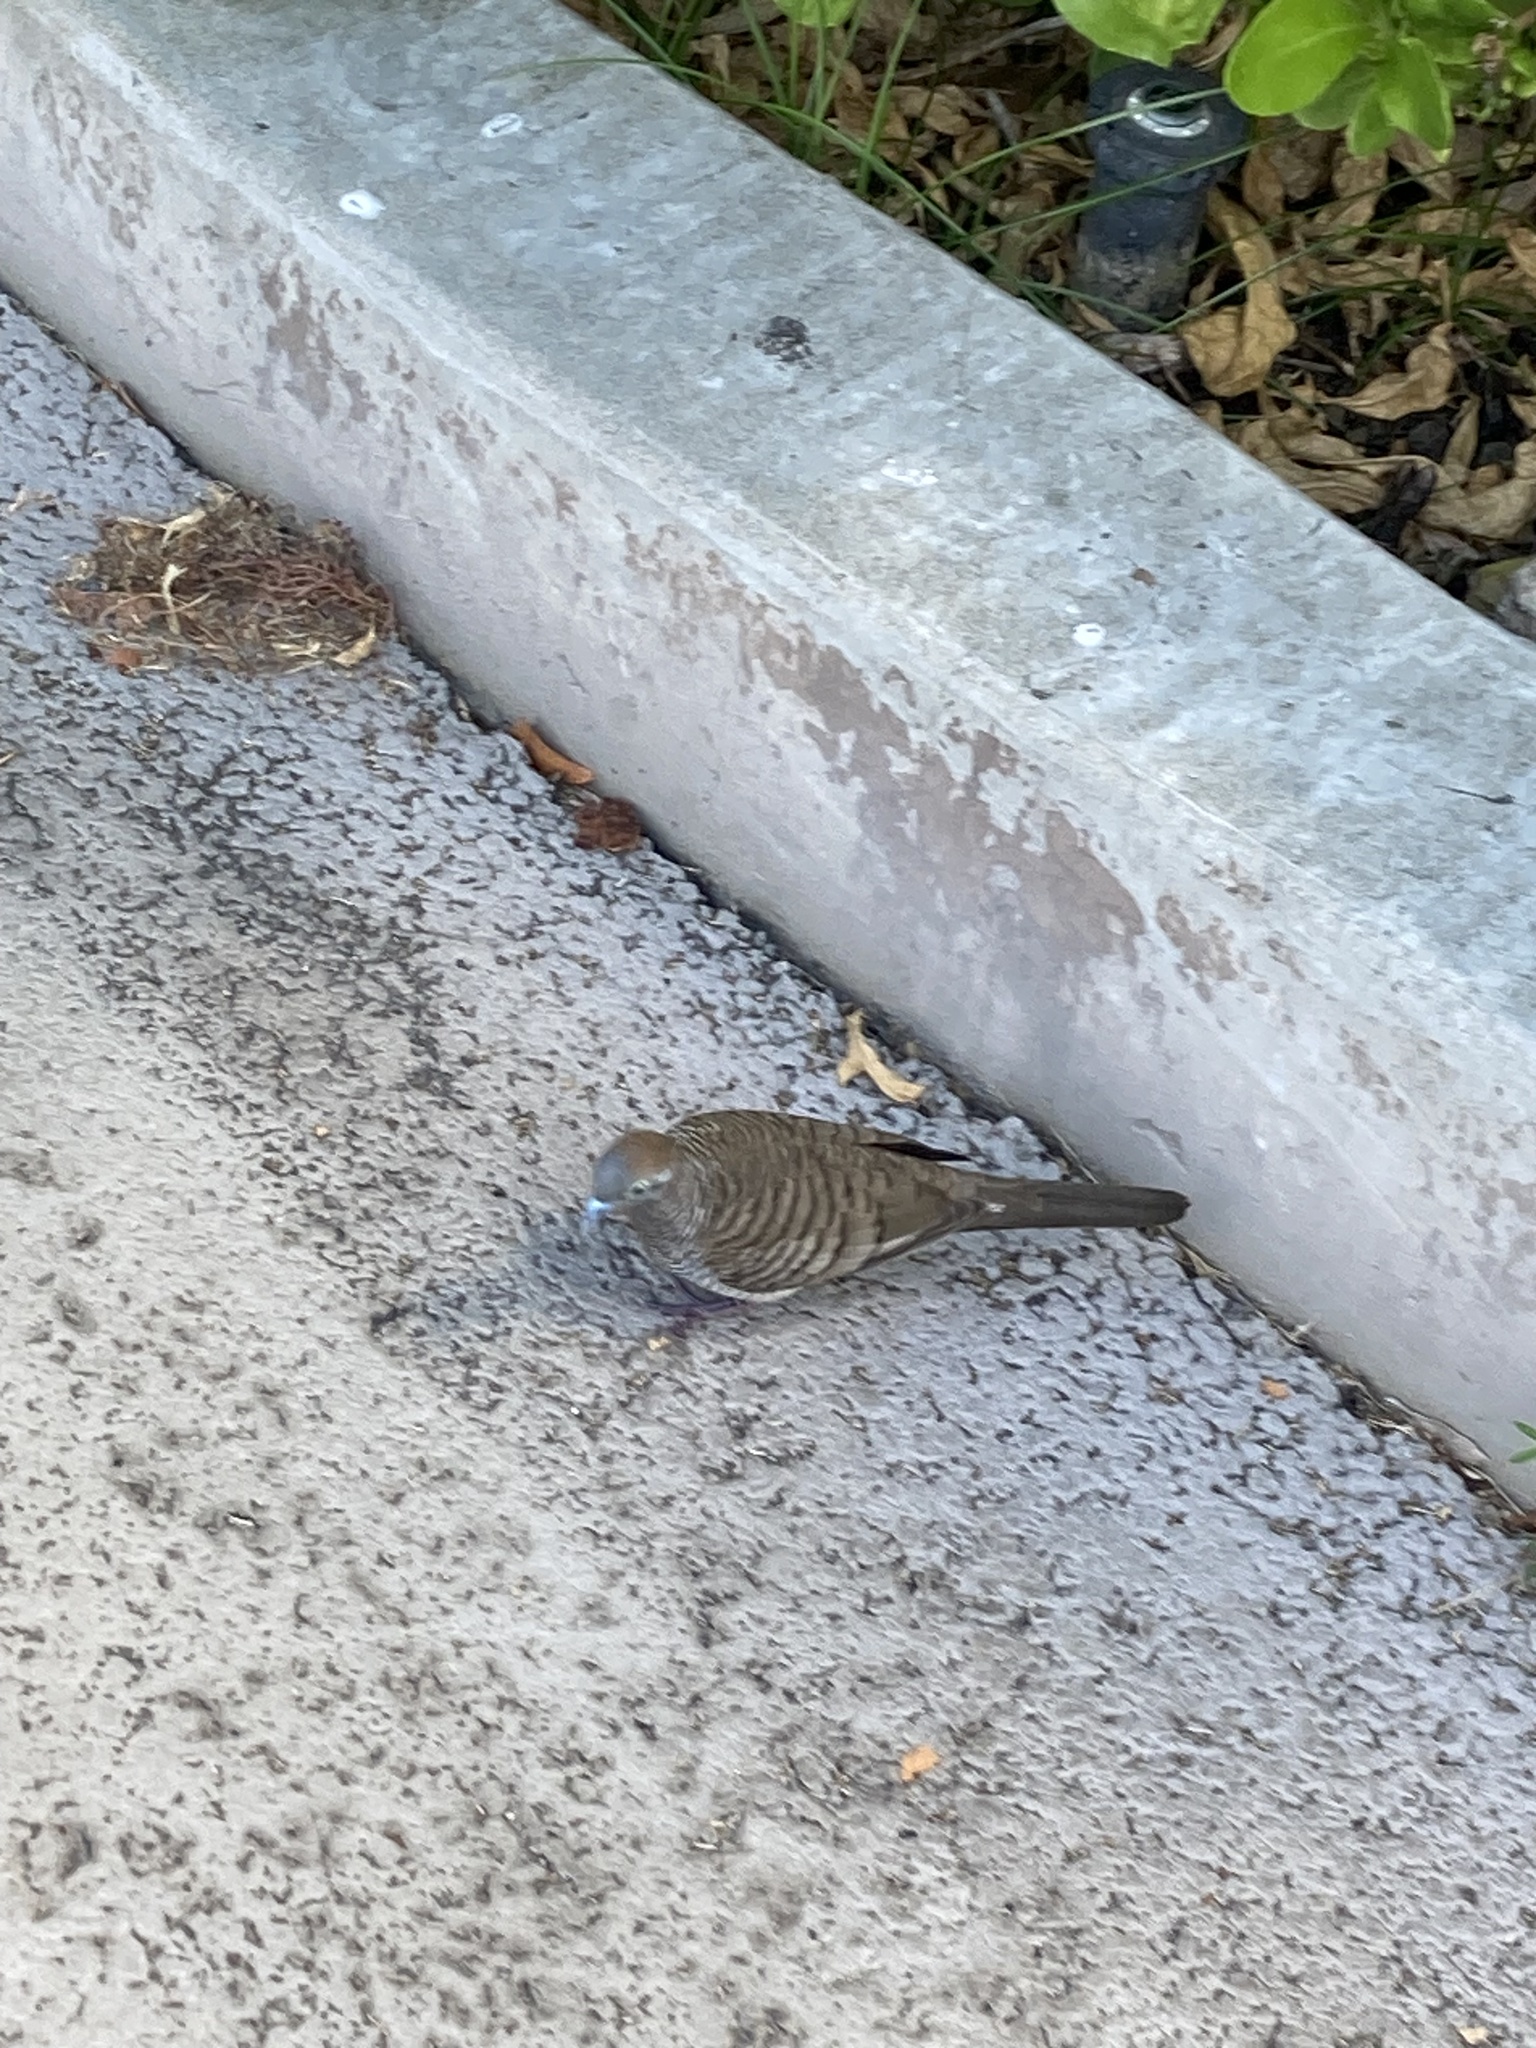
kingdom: Animalia
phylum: Chordata
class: Aves
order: Columbiformes
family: Columbidae
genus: Geopelia
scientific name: Geopelia striata
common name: Zebra dove
